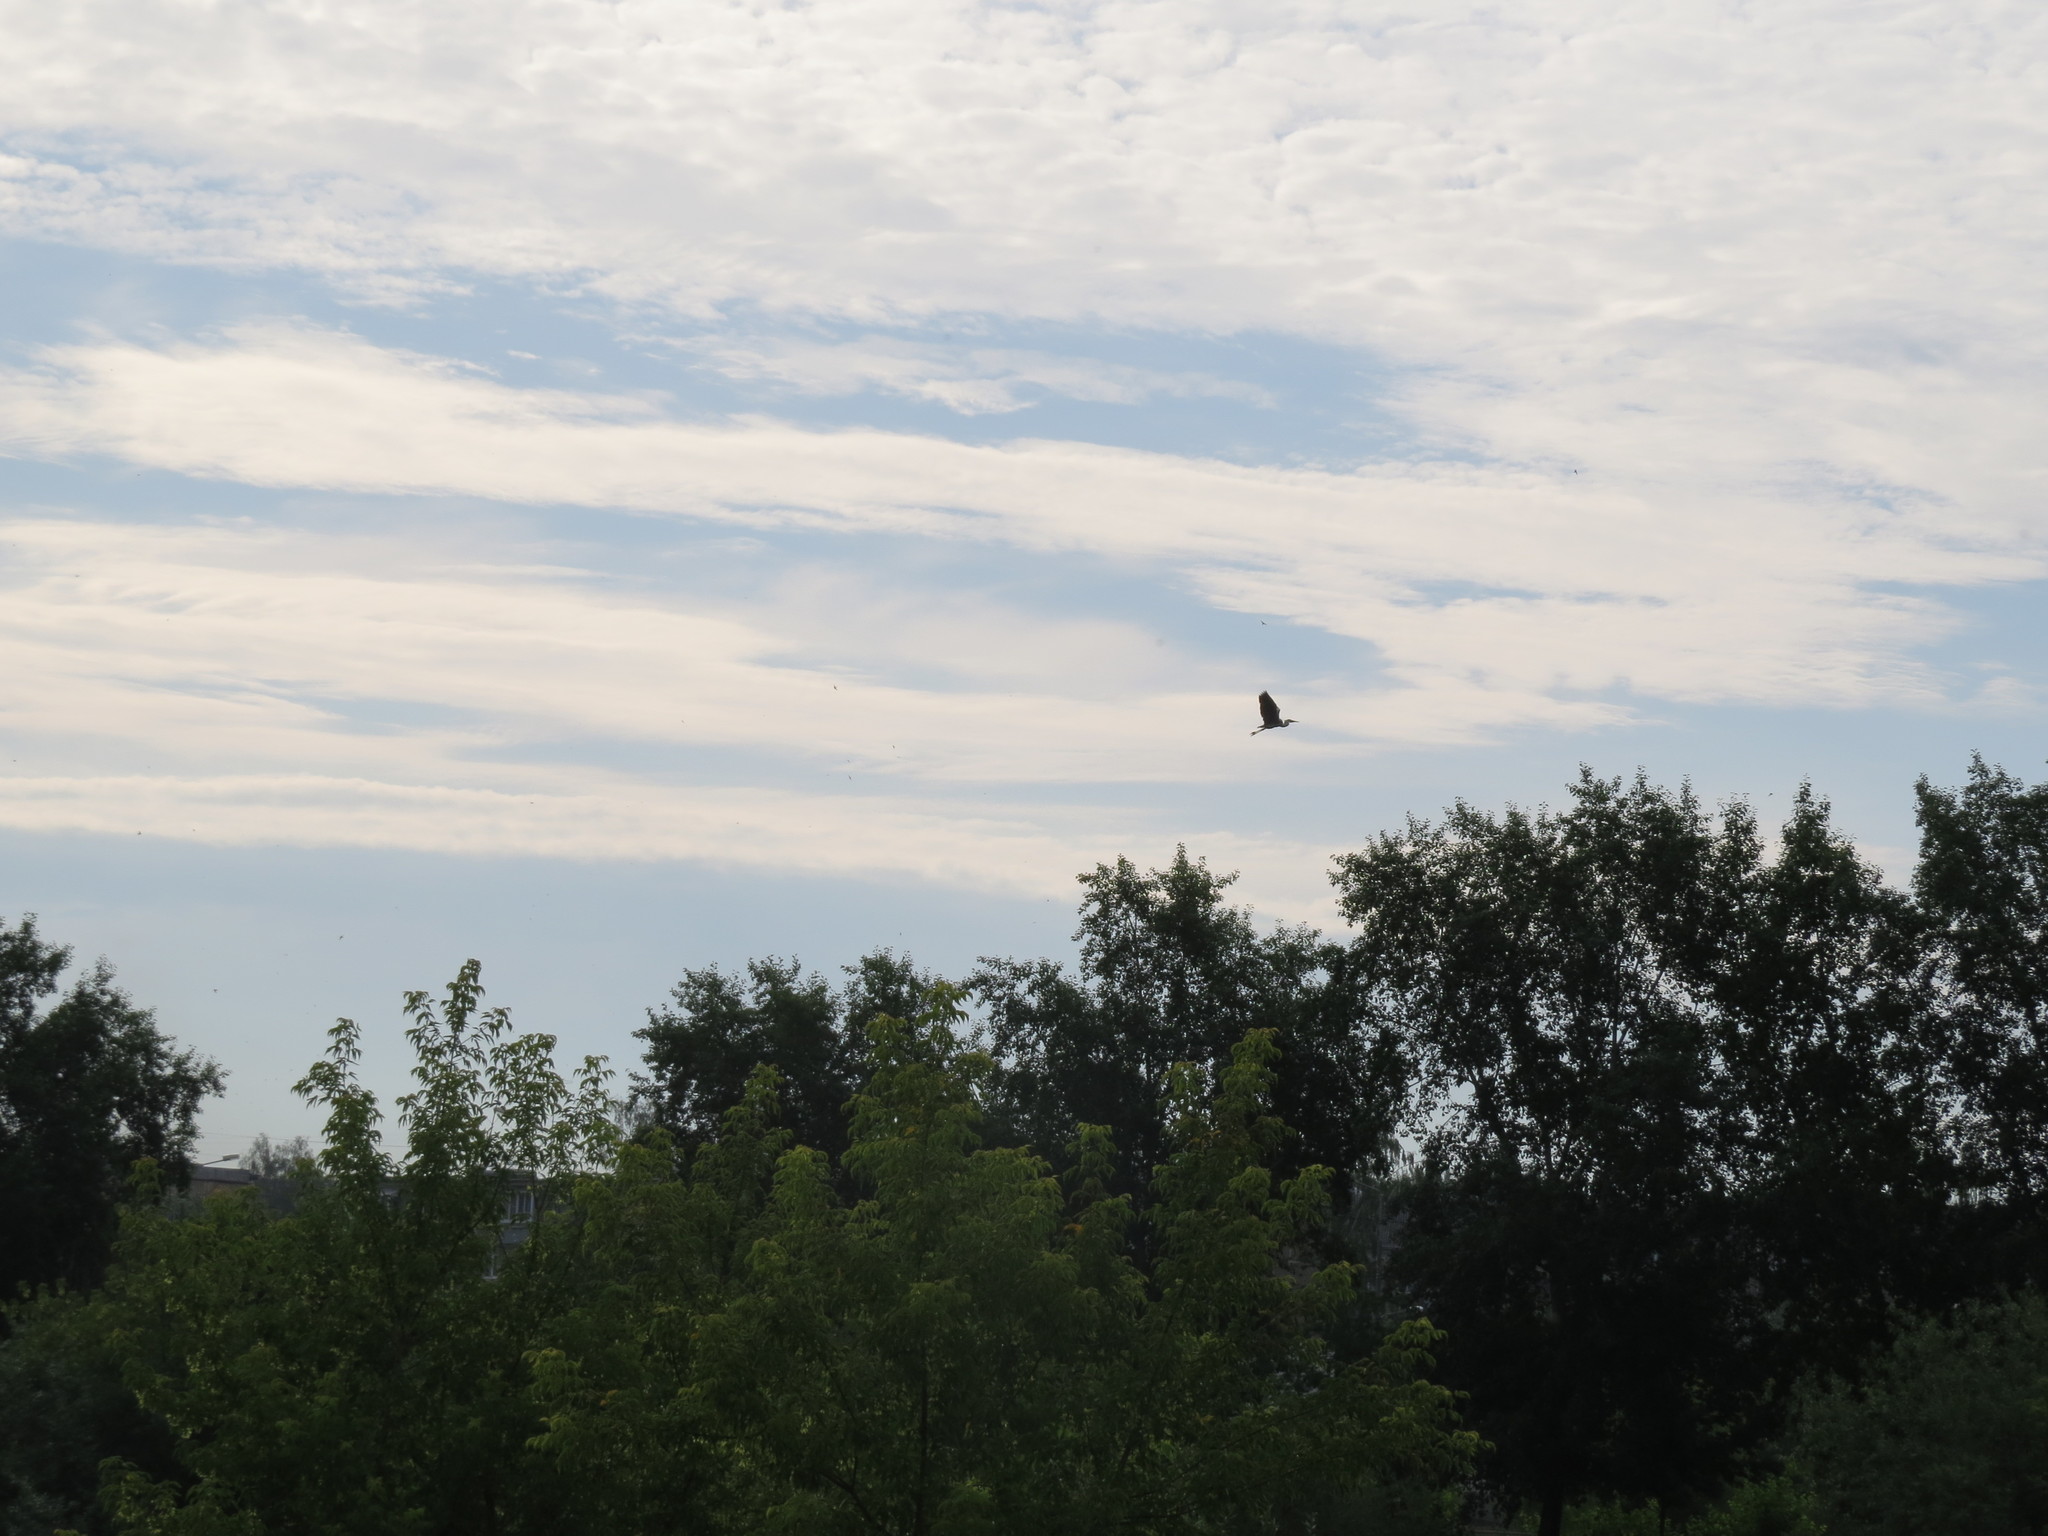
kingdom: Animalia
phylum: Chordata
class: Aves
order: Pelecaniformes
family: Ardeidae
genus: Ardea
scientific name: Ardea cinerea
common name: Grey heron
